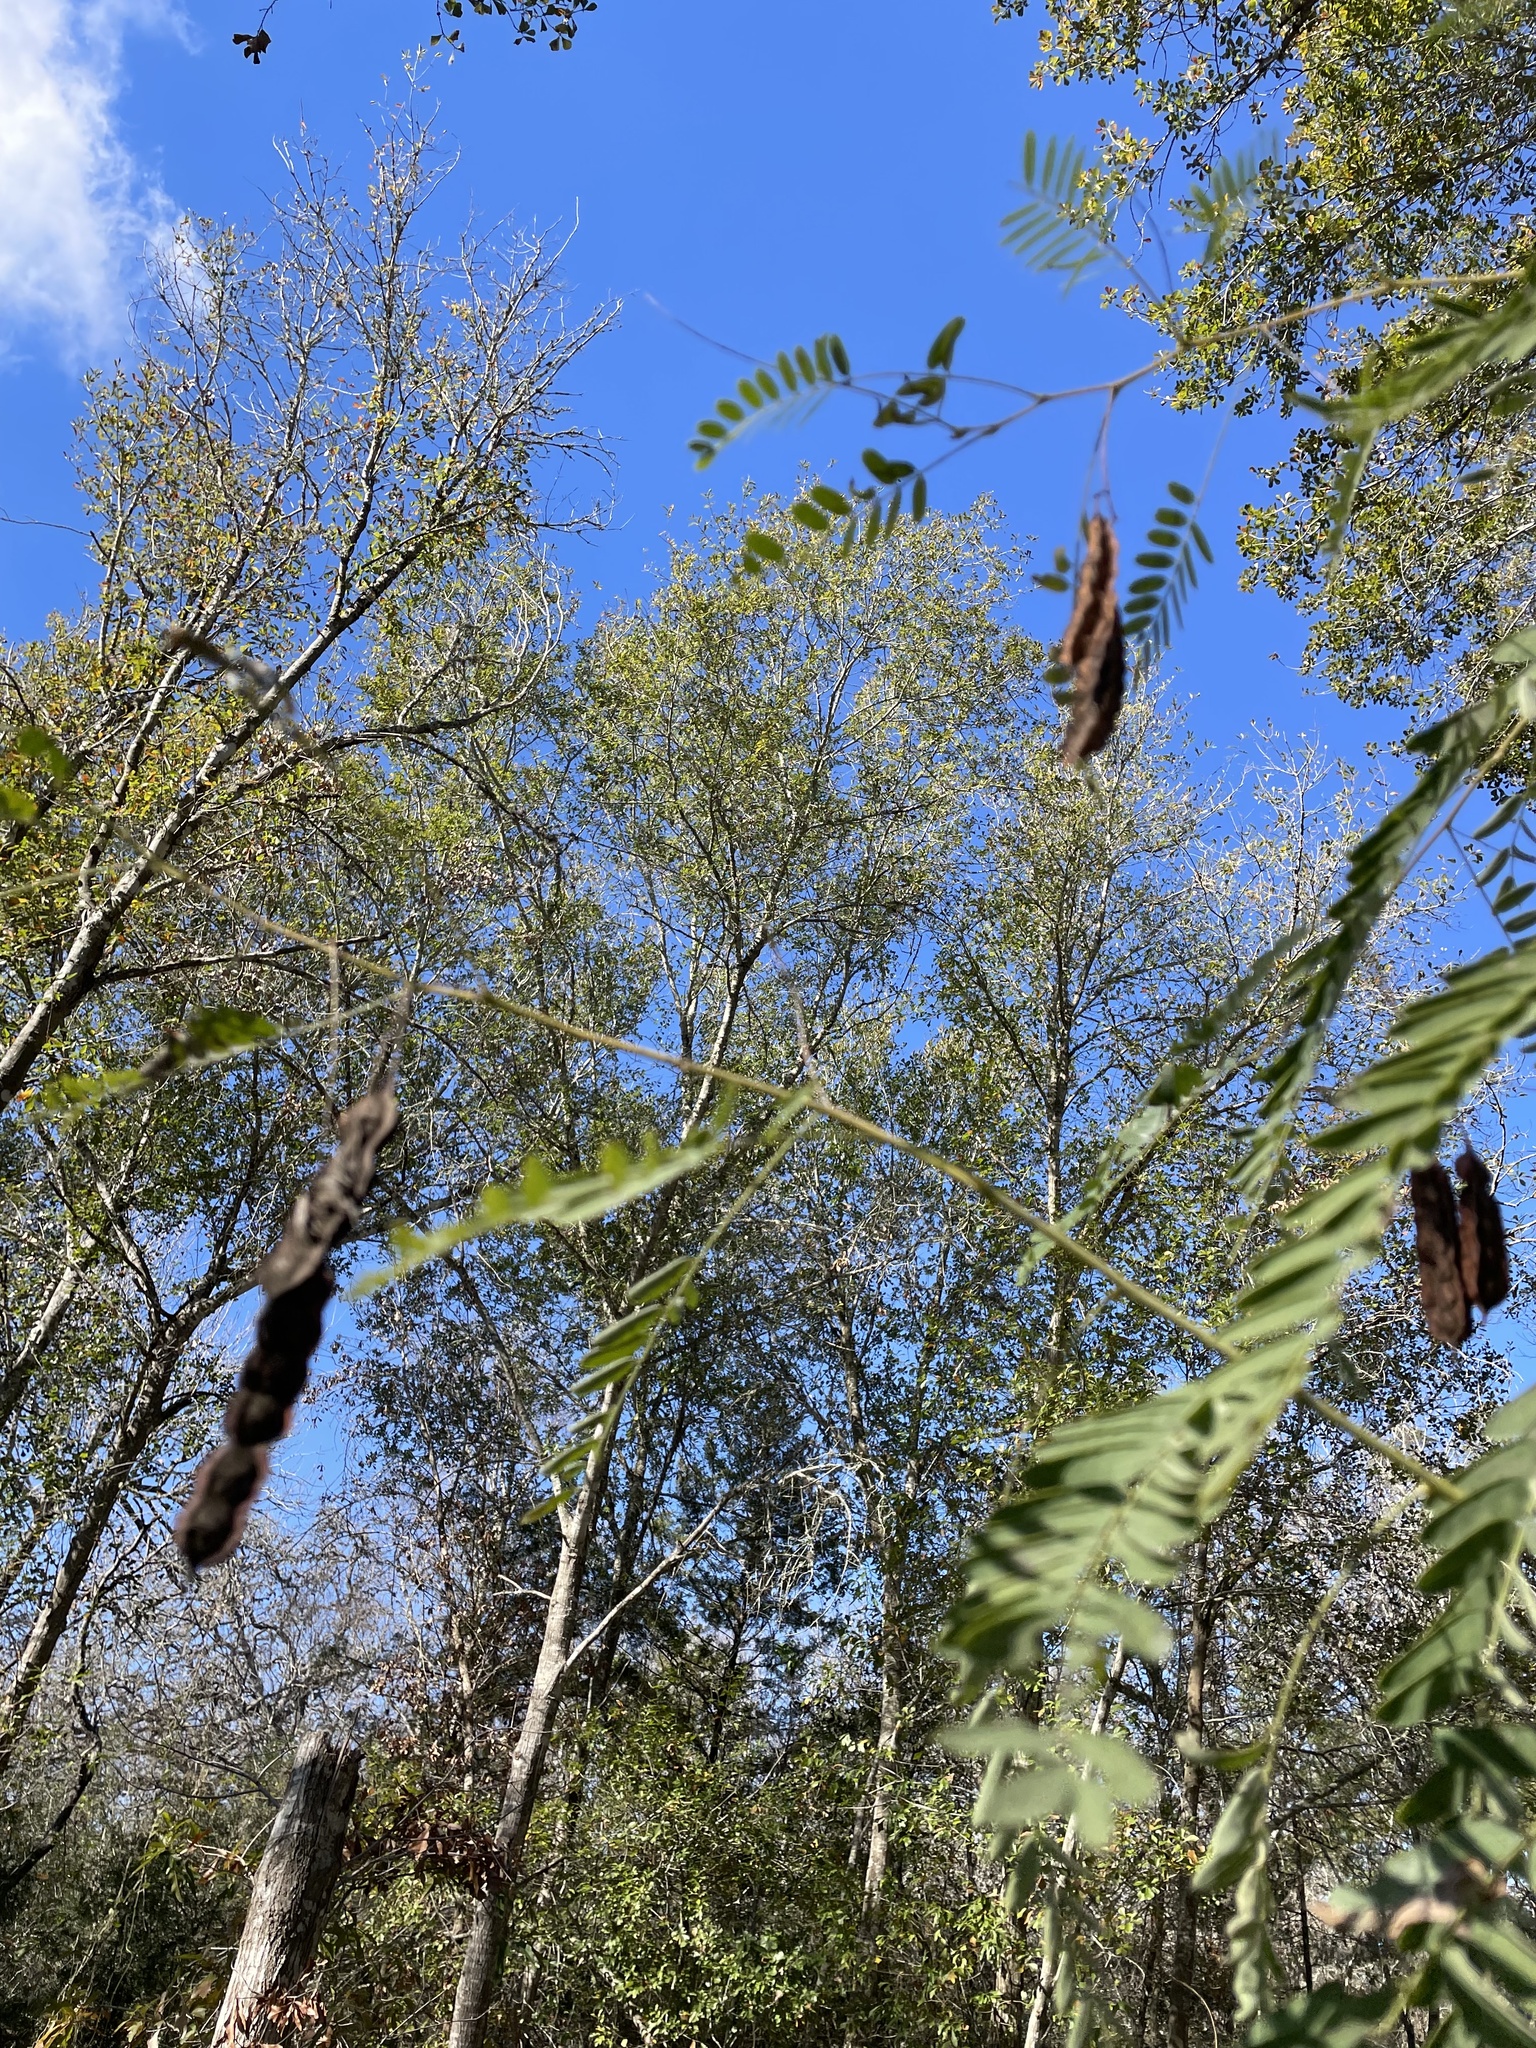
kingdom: Plantae
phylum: Tracheophyta
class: Magnoliopsida
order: Fabales
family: Fabaceae
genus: Sesbania
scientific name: Sesbania drummondii
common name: Poison-bean
